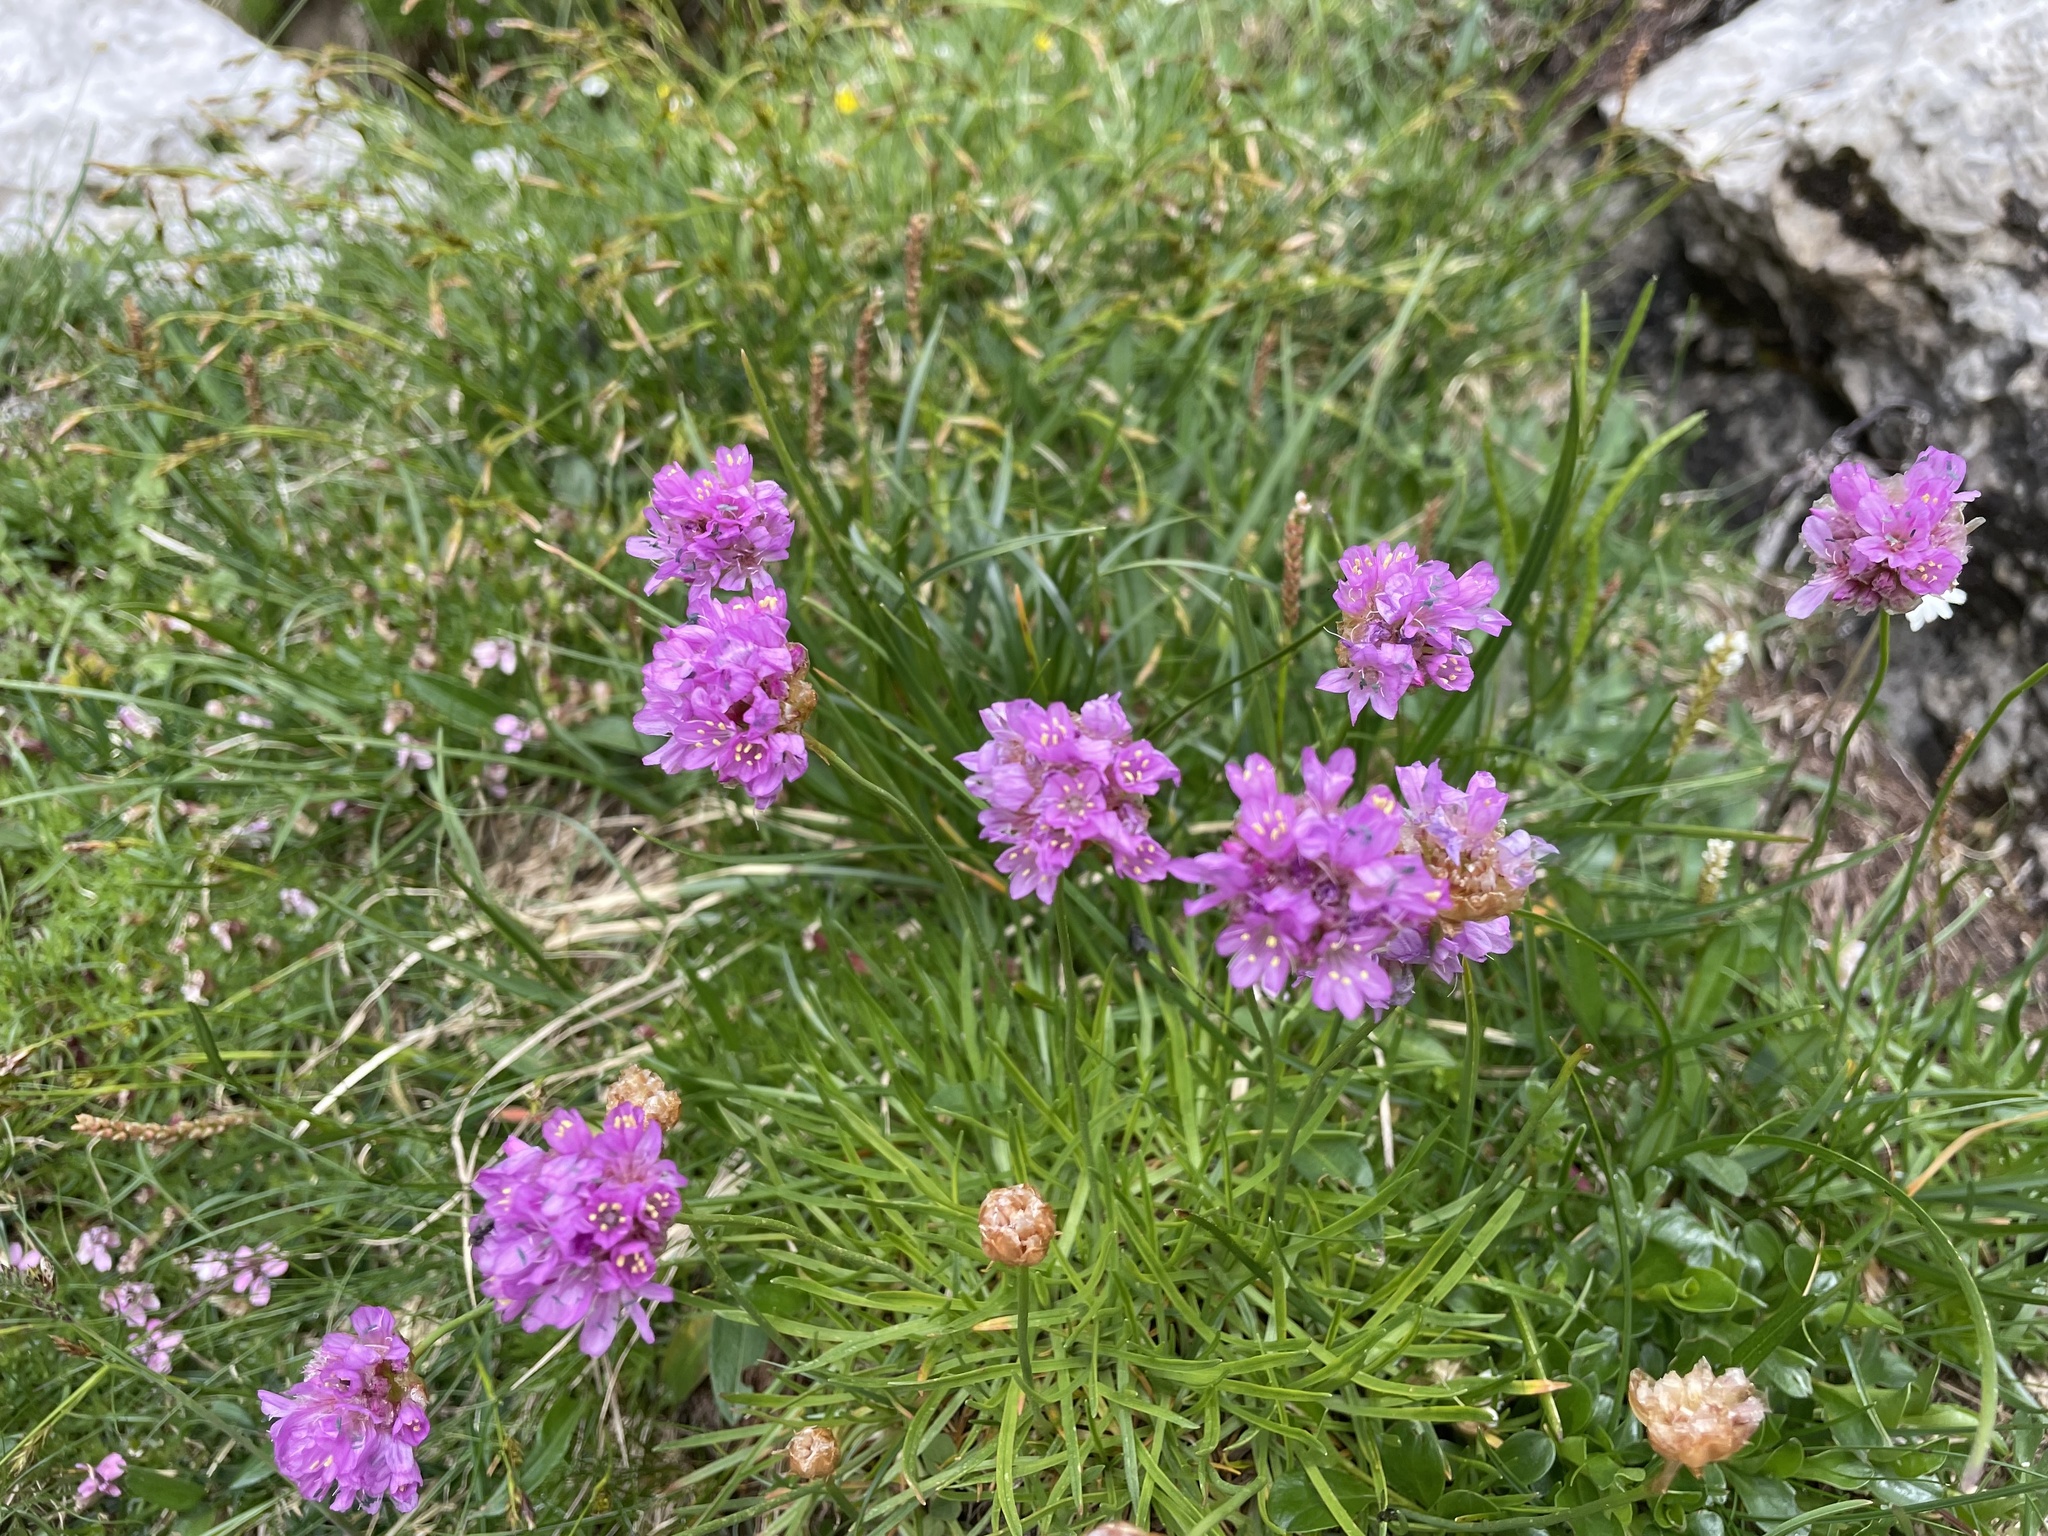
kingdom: Plantae
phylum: Tracheophyta
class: Magnoliopsida
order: Caryophyllales
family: Plumbaginaceae
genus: Armeria
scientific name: Armeria alpina
